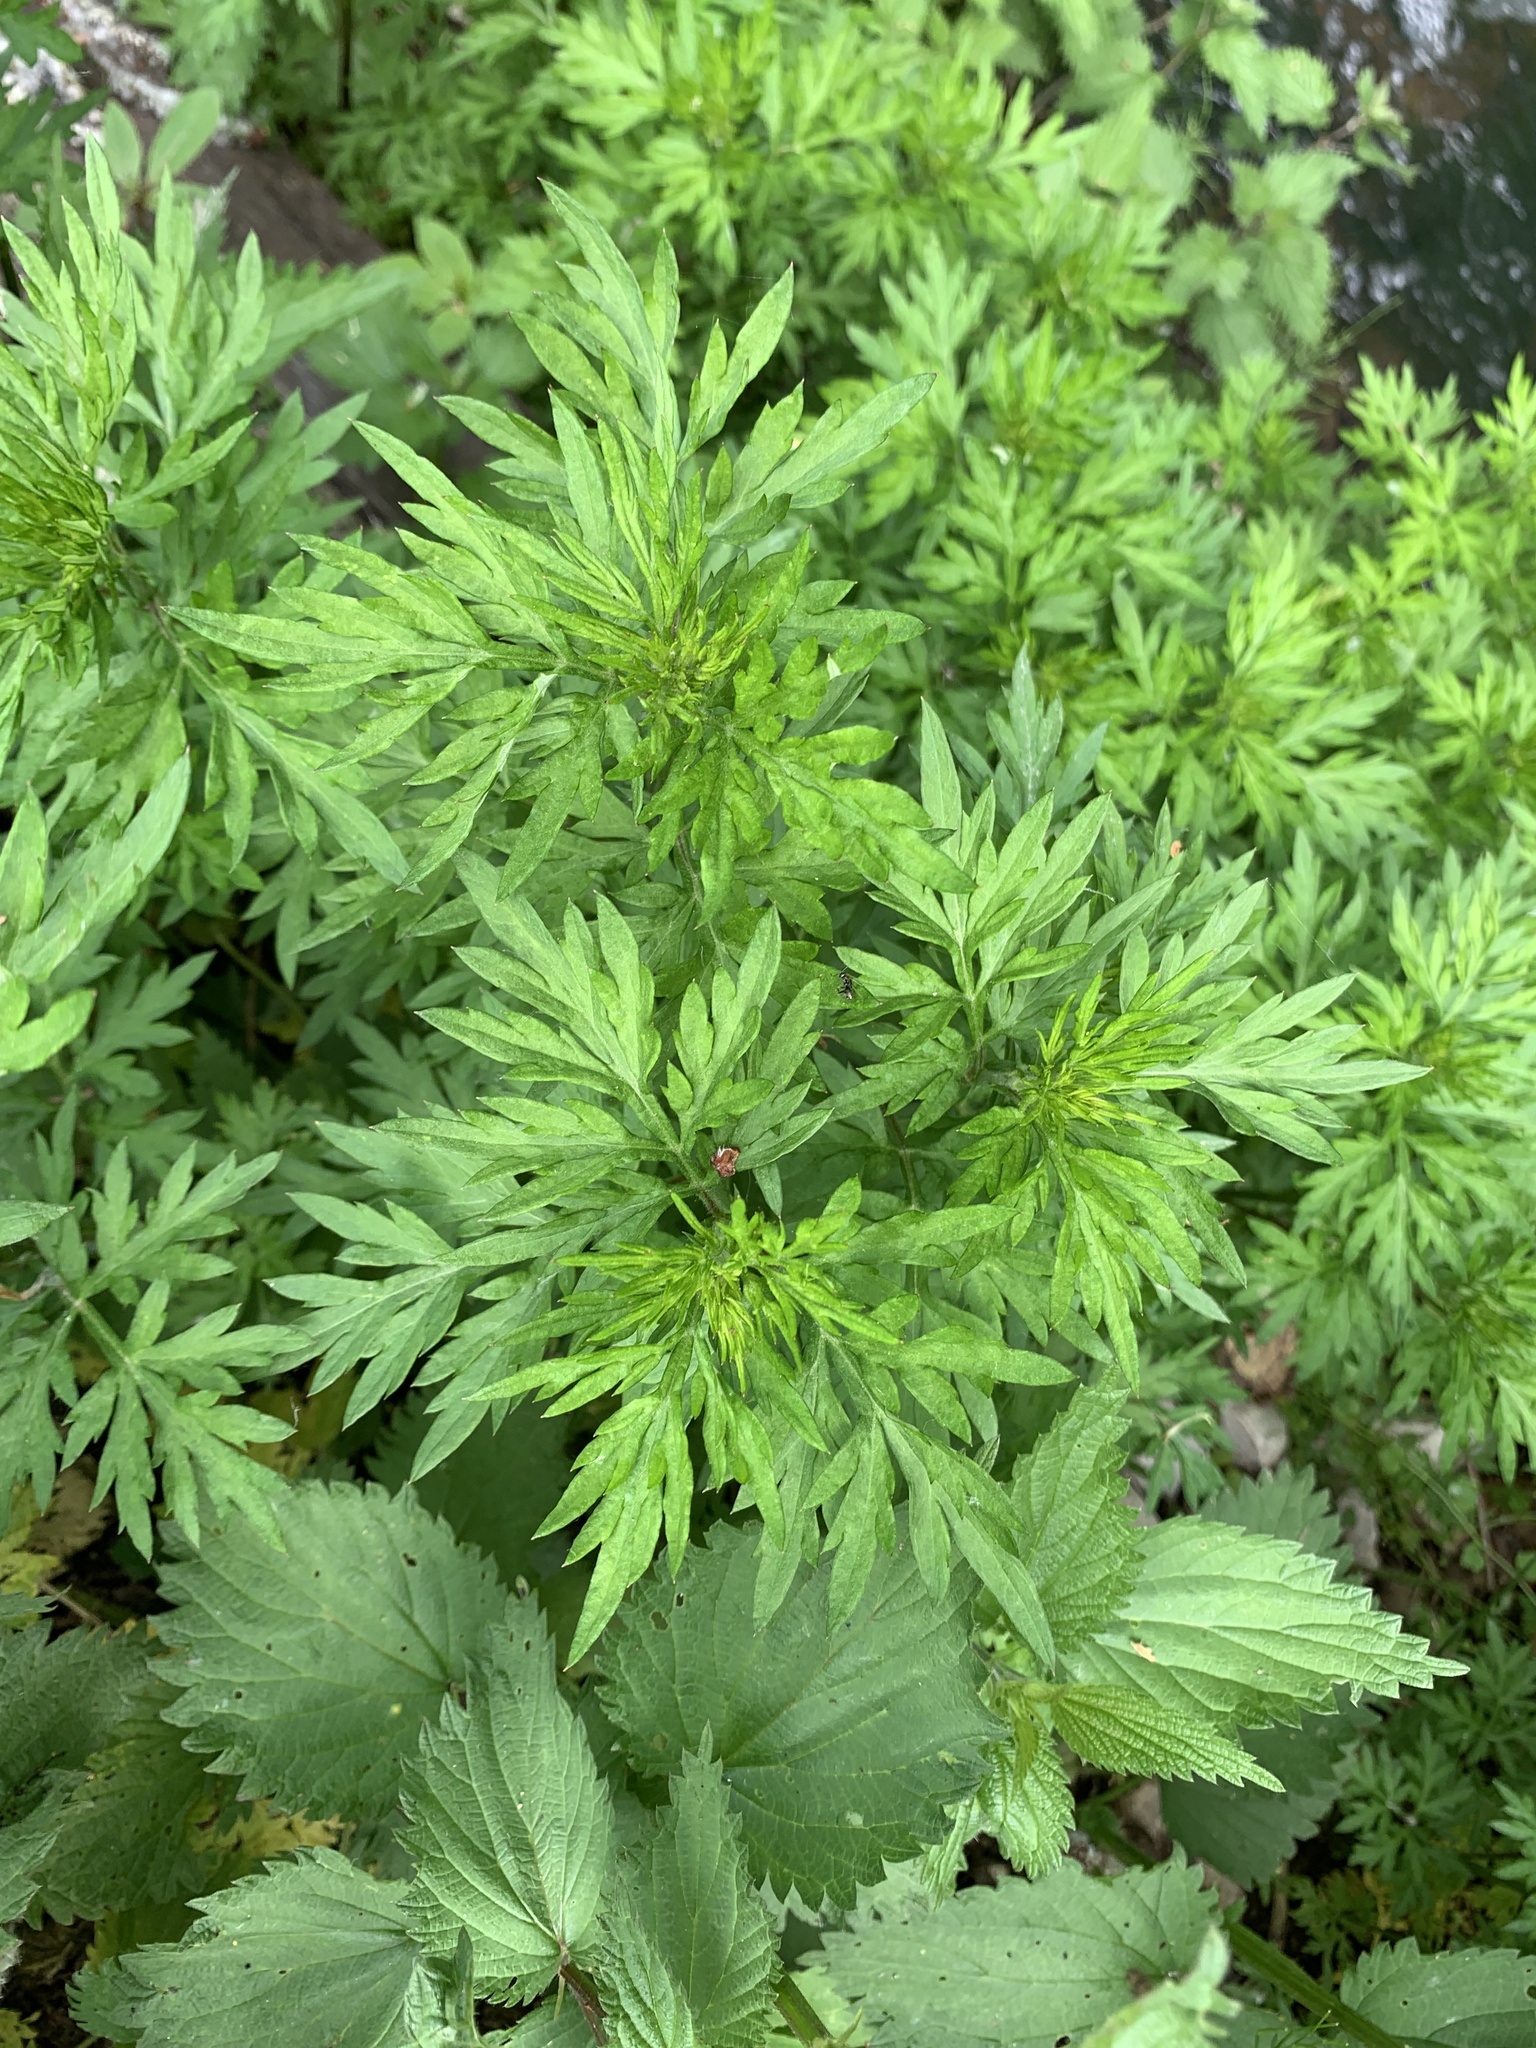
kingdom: Plantae
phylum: Tracheophyta
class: Magnoliopsida
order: Asterales
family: Asteraceae
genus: Artemisia
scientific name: Artemisia vulgaris
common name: Mugwort
